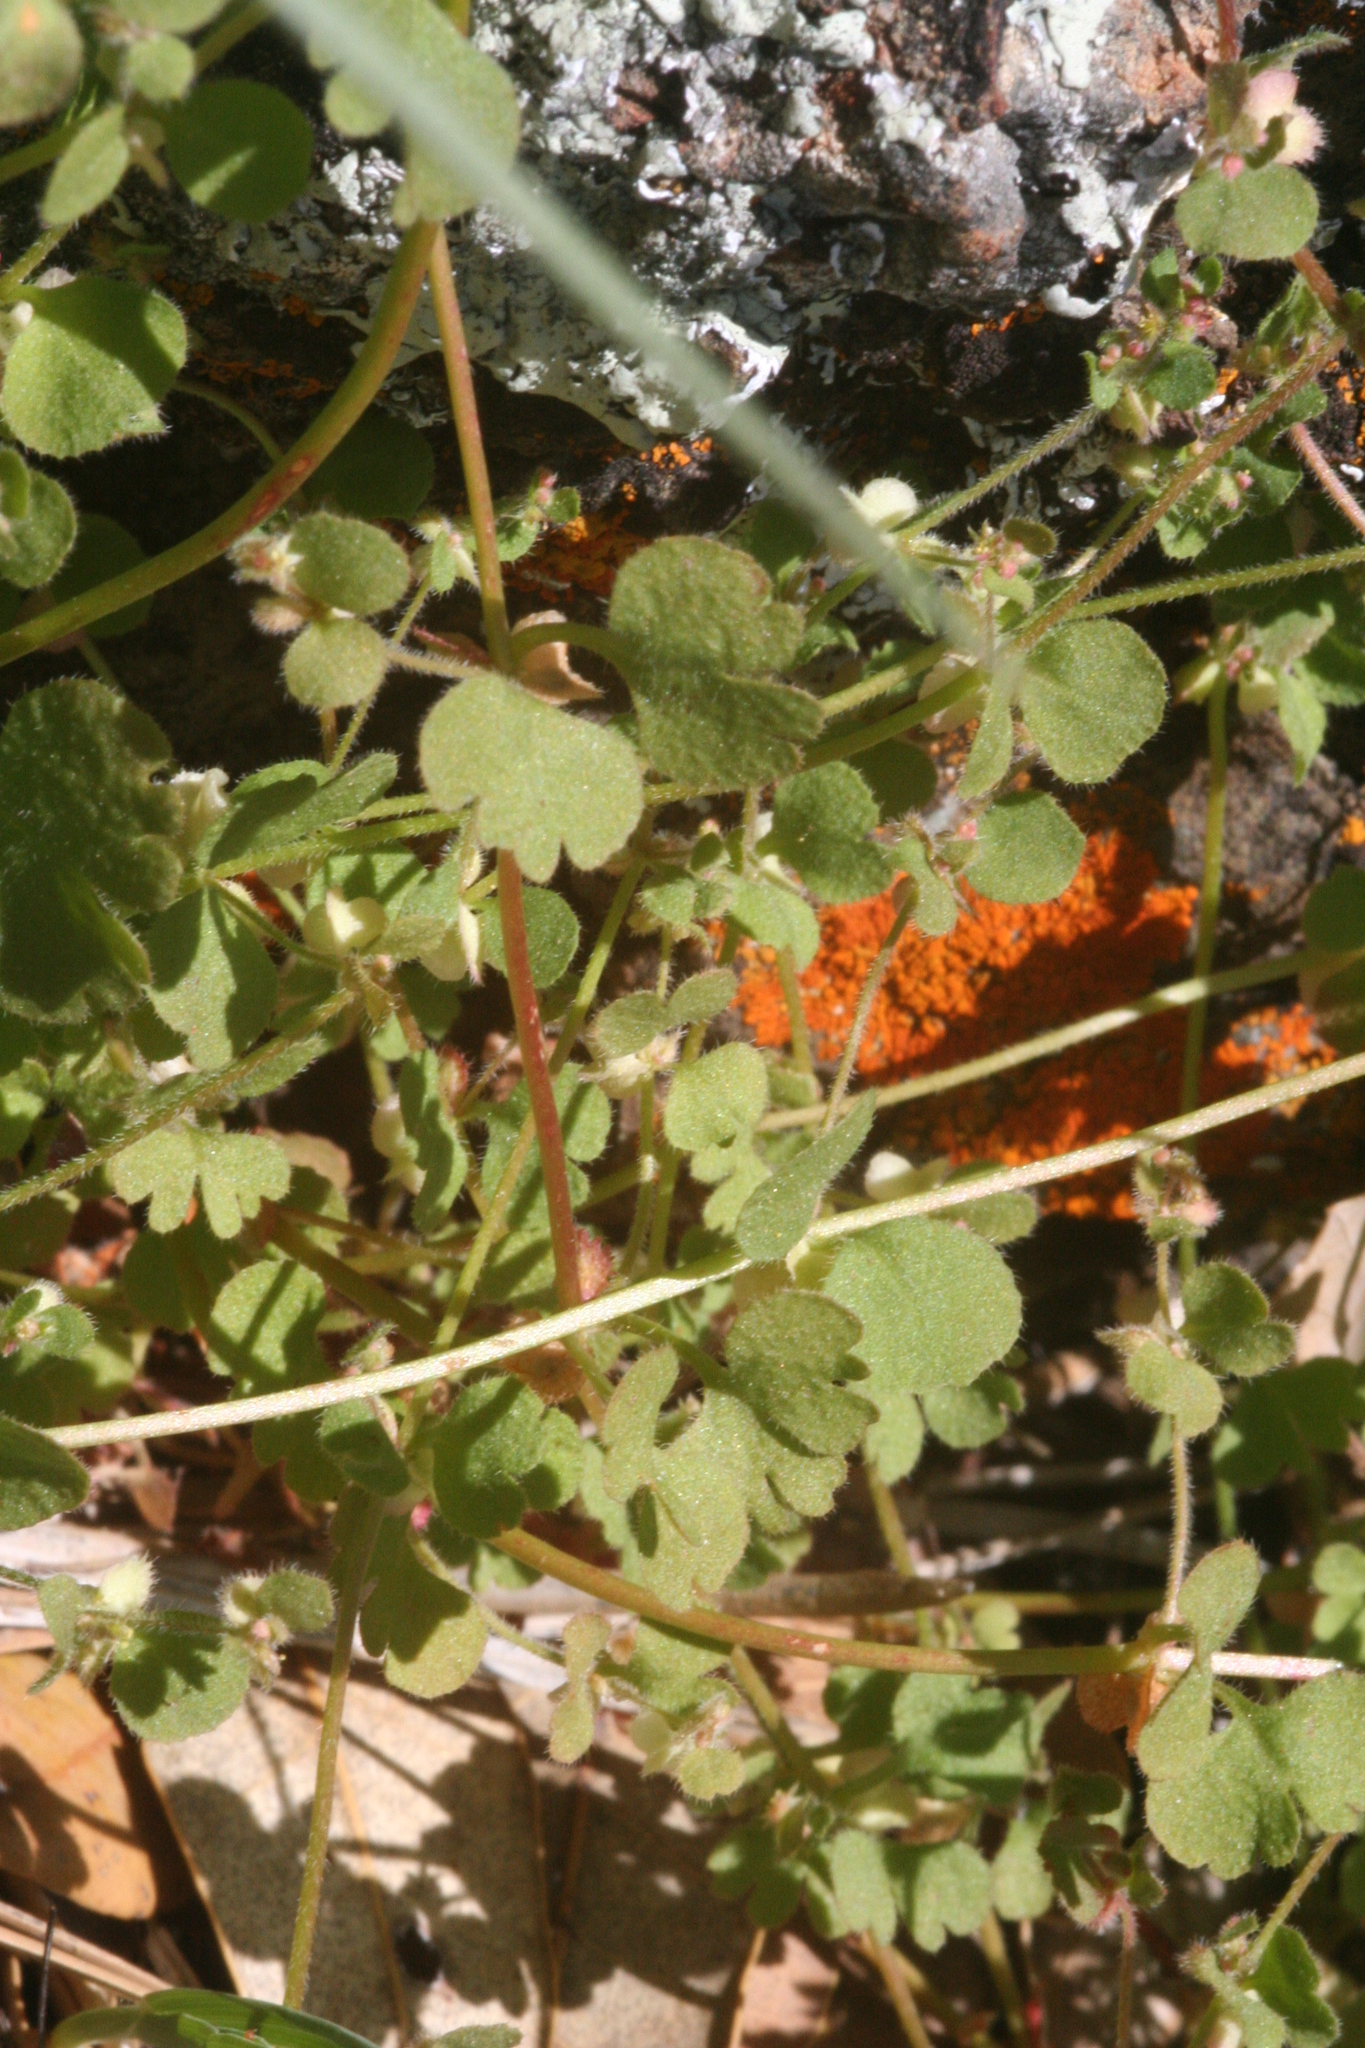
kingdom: Plantae
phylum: Tracheophyta
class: Magnoliopsida
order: Caryophyllales
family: Polygonaceae
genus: Pterostegia
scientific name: Pterostegia drymarioides
